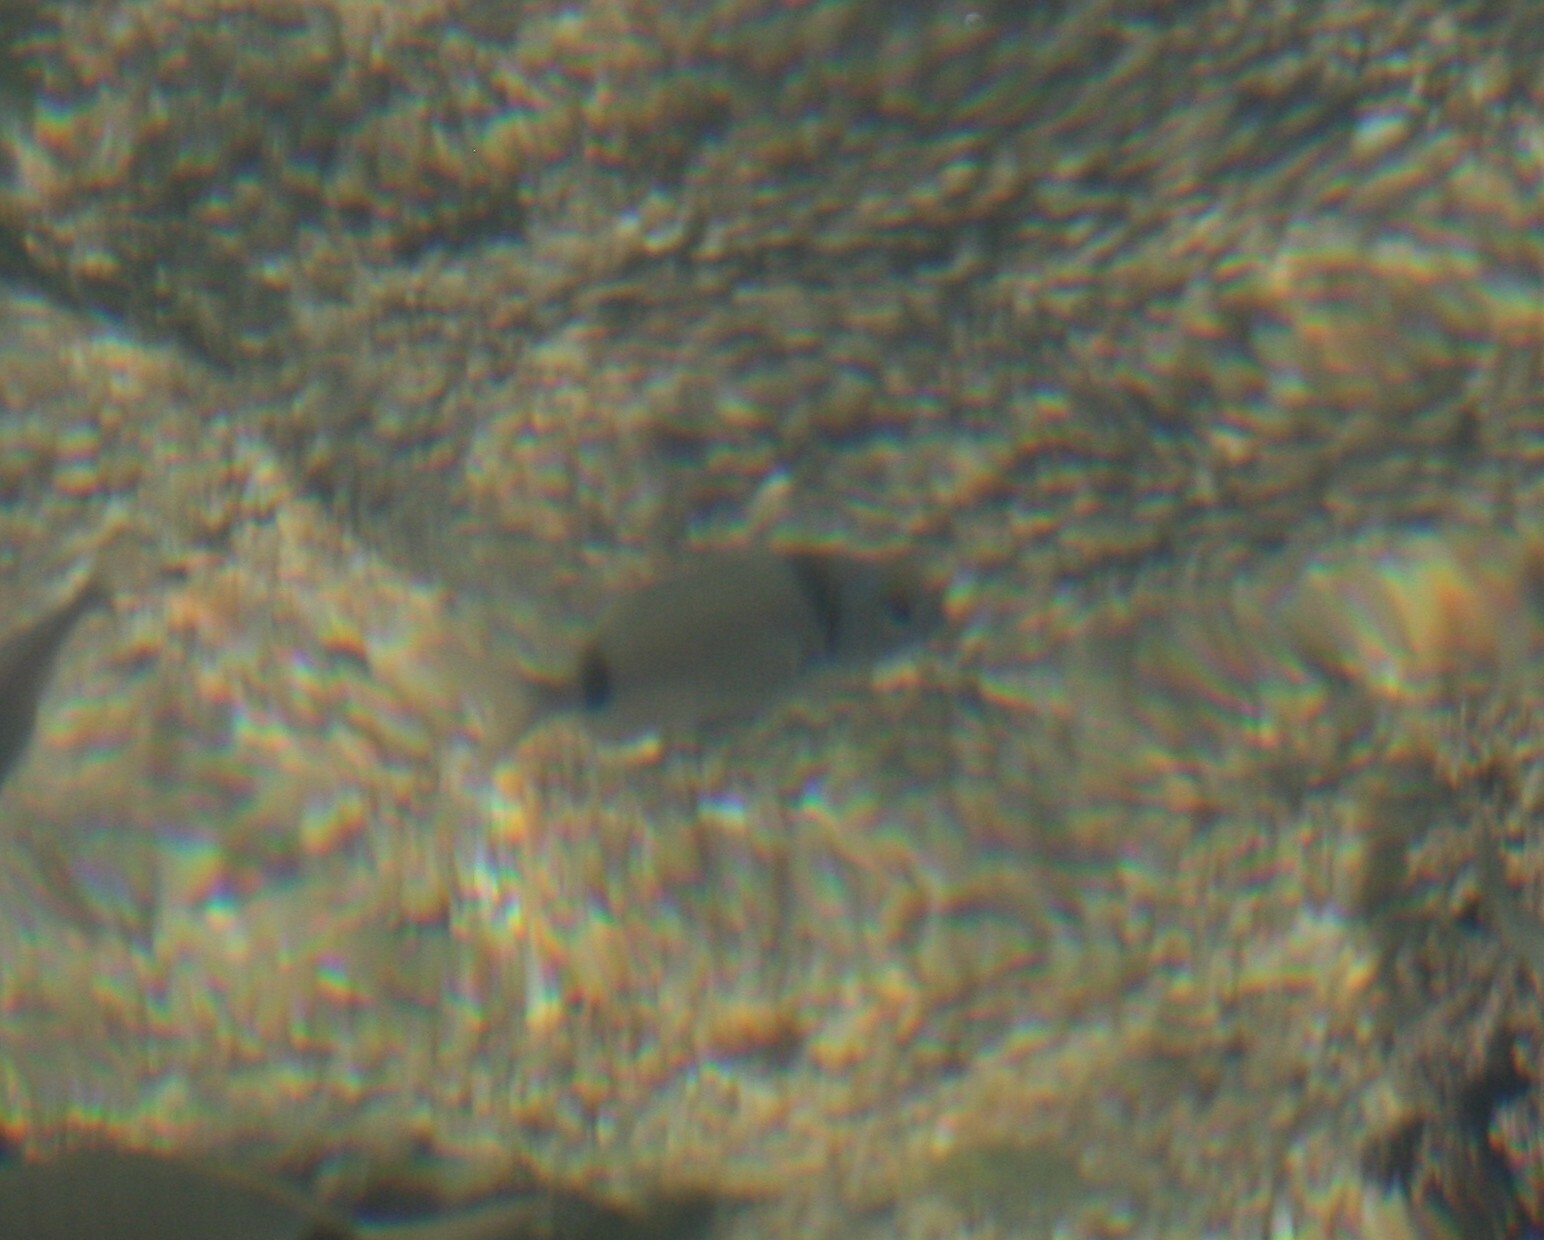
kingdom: Animalia
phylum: Chordata
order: Perciformes
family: Sparidae
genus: Diplodus
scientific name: Diplodus vulgaris
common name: Common two-banded seabream
